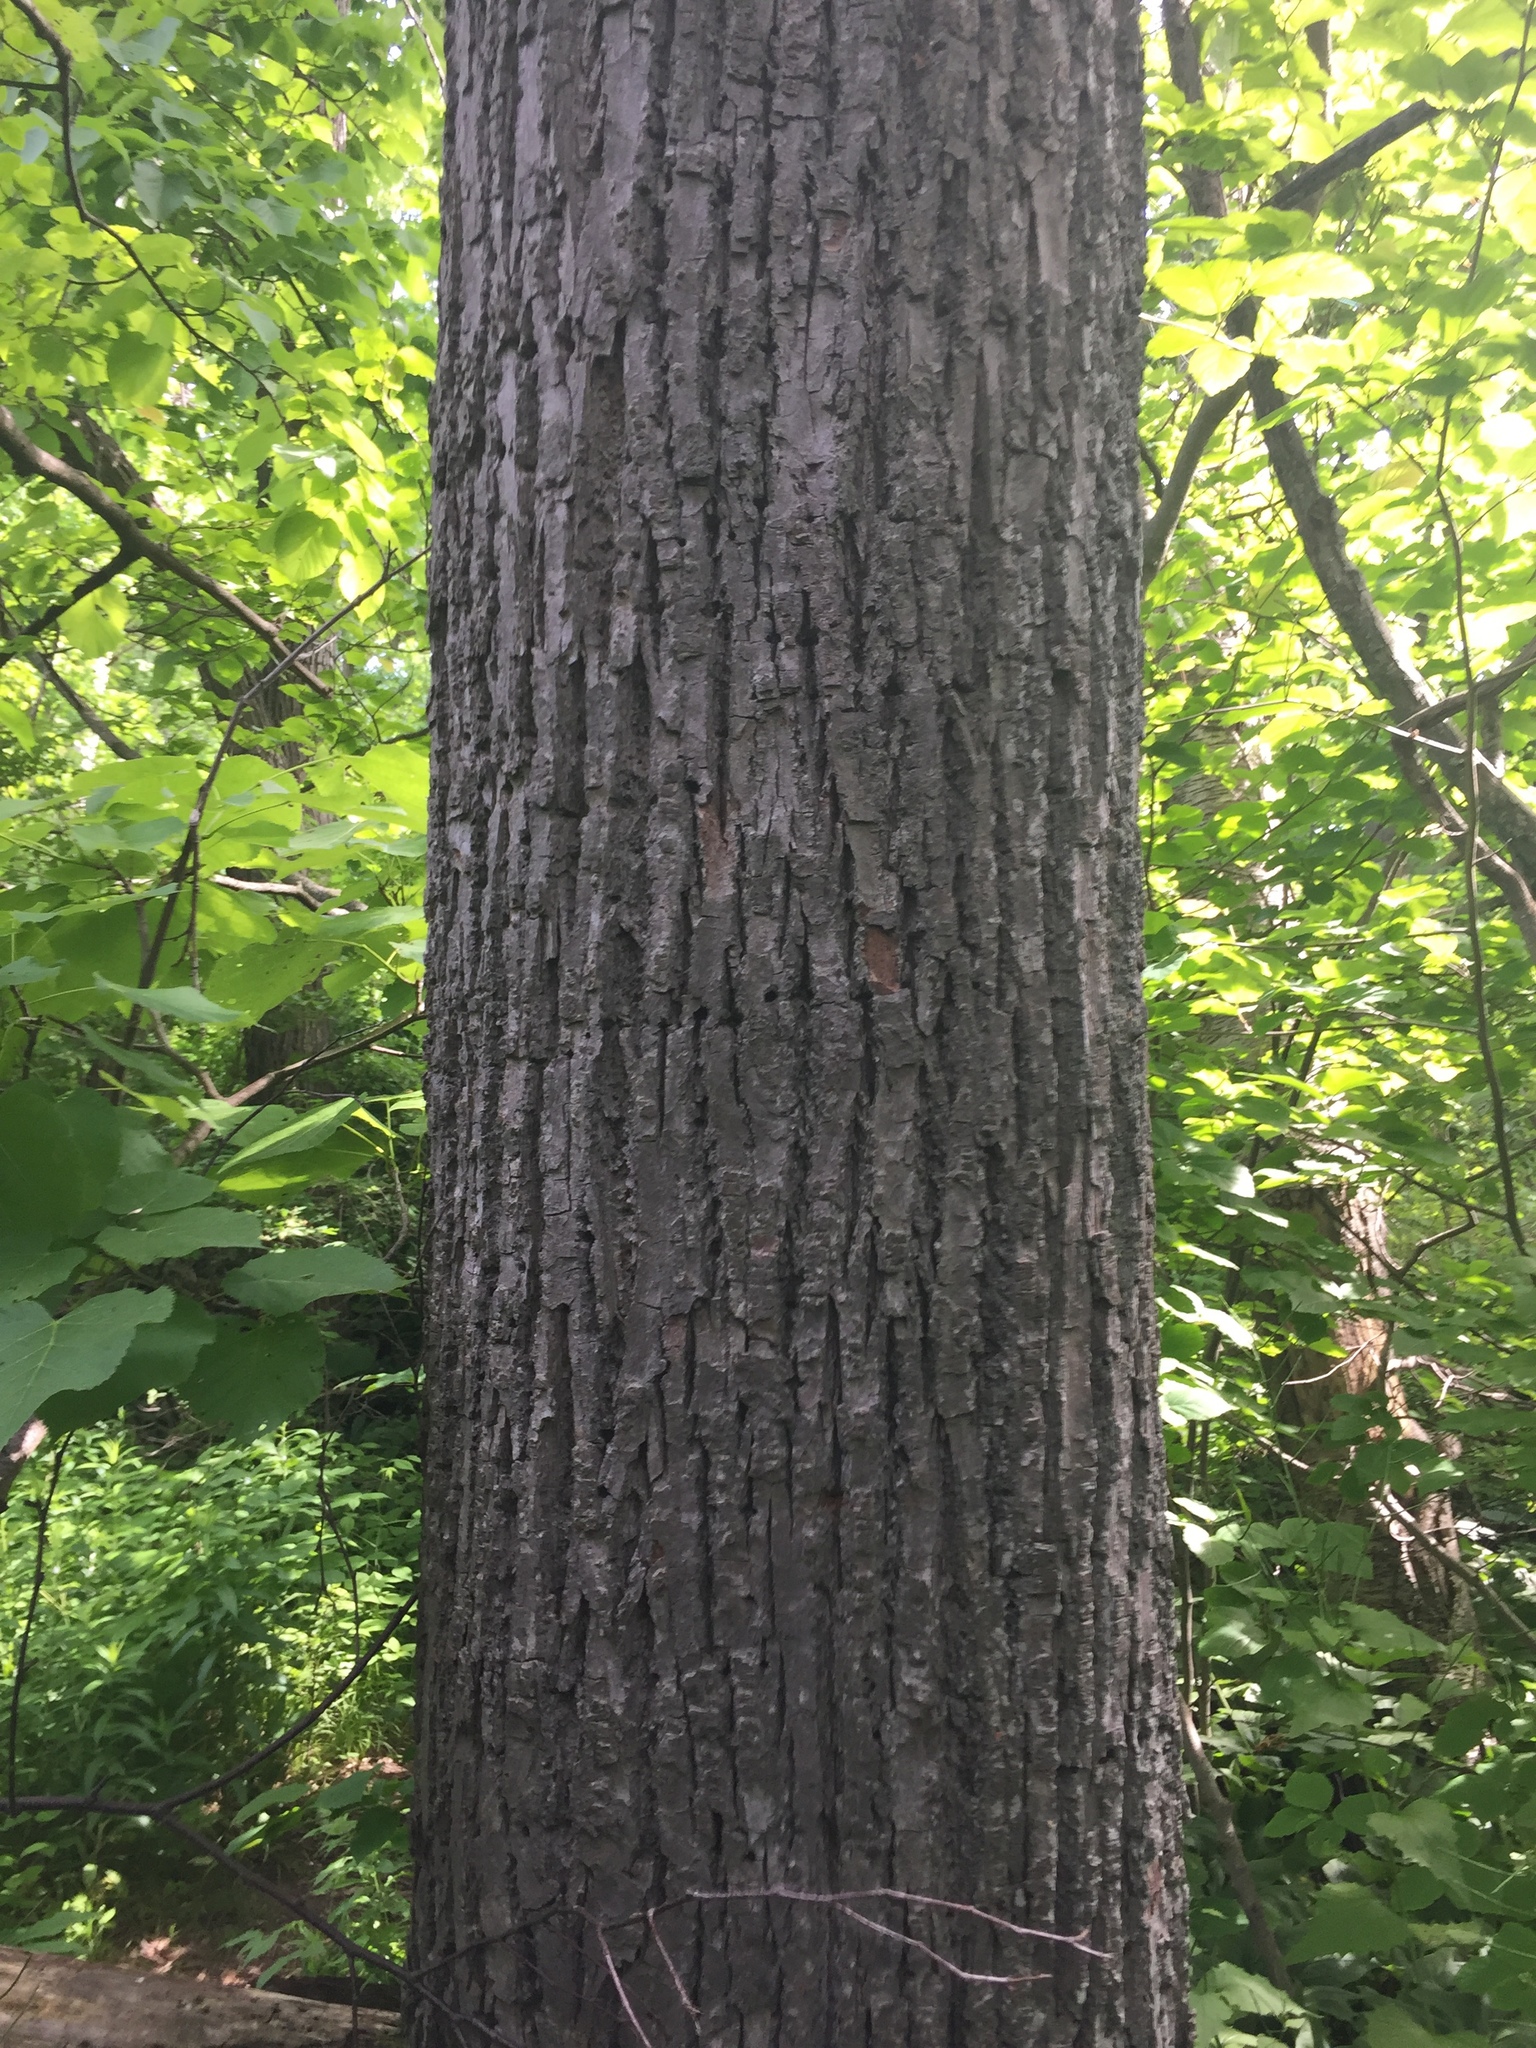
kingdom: Plantae
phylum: Tracheophyta
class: Magnoliopsida
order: Malvales
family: Malvaceae
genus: Tilia
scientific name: Tilia americana
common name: Basswood
